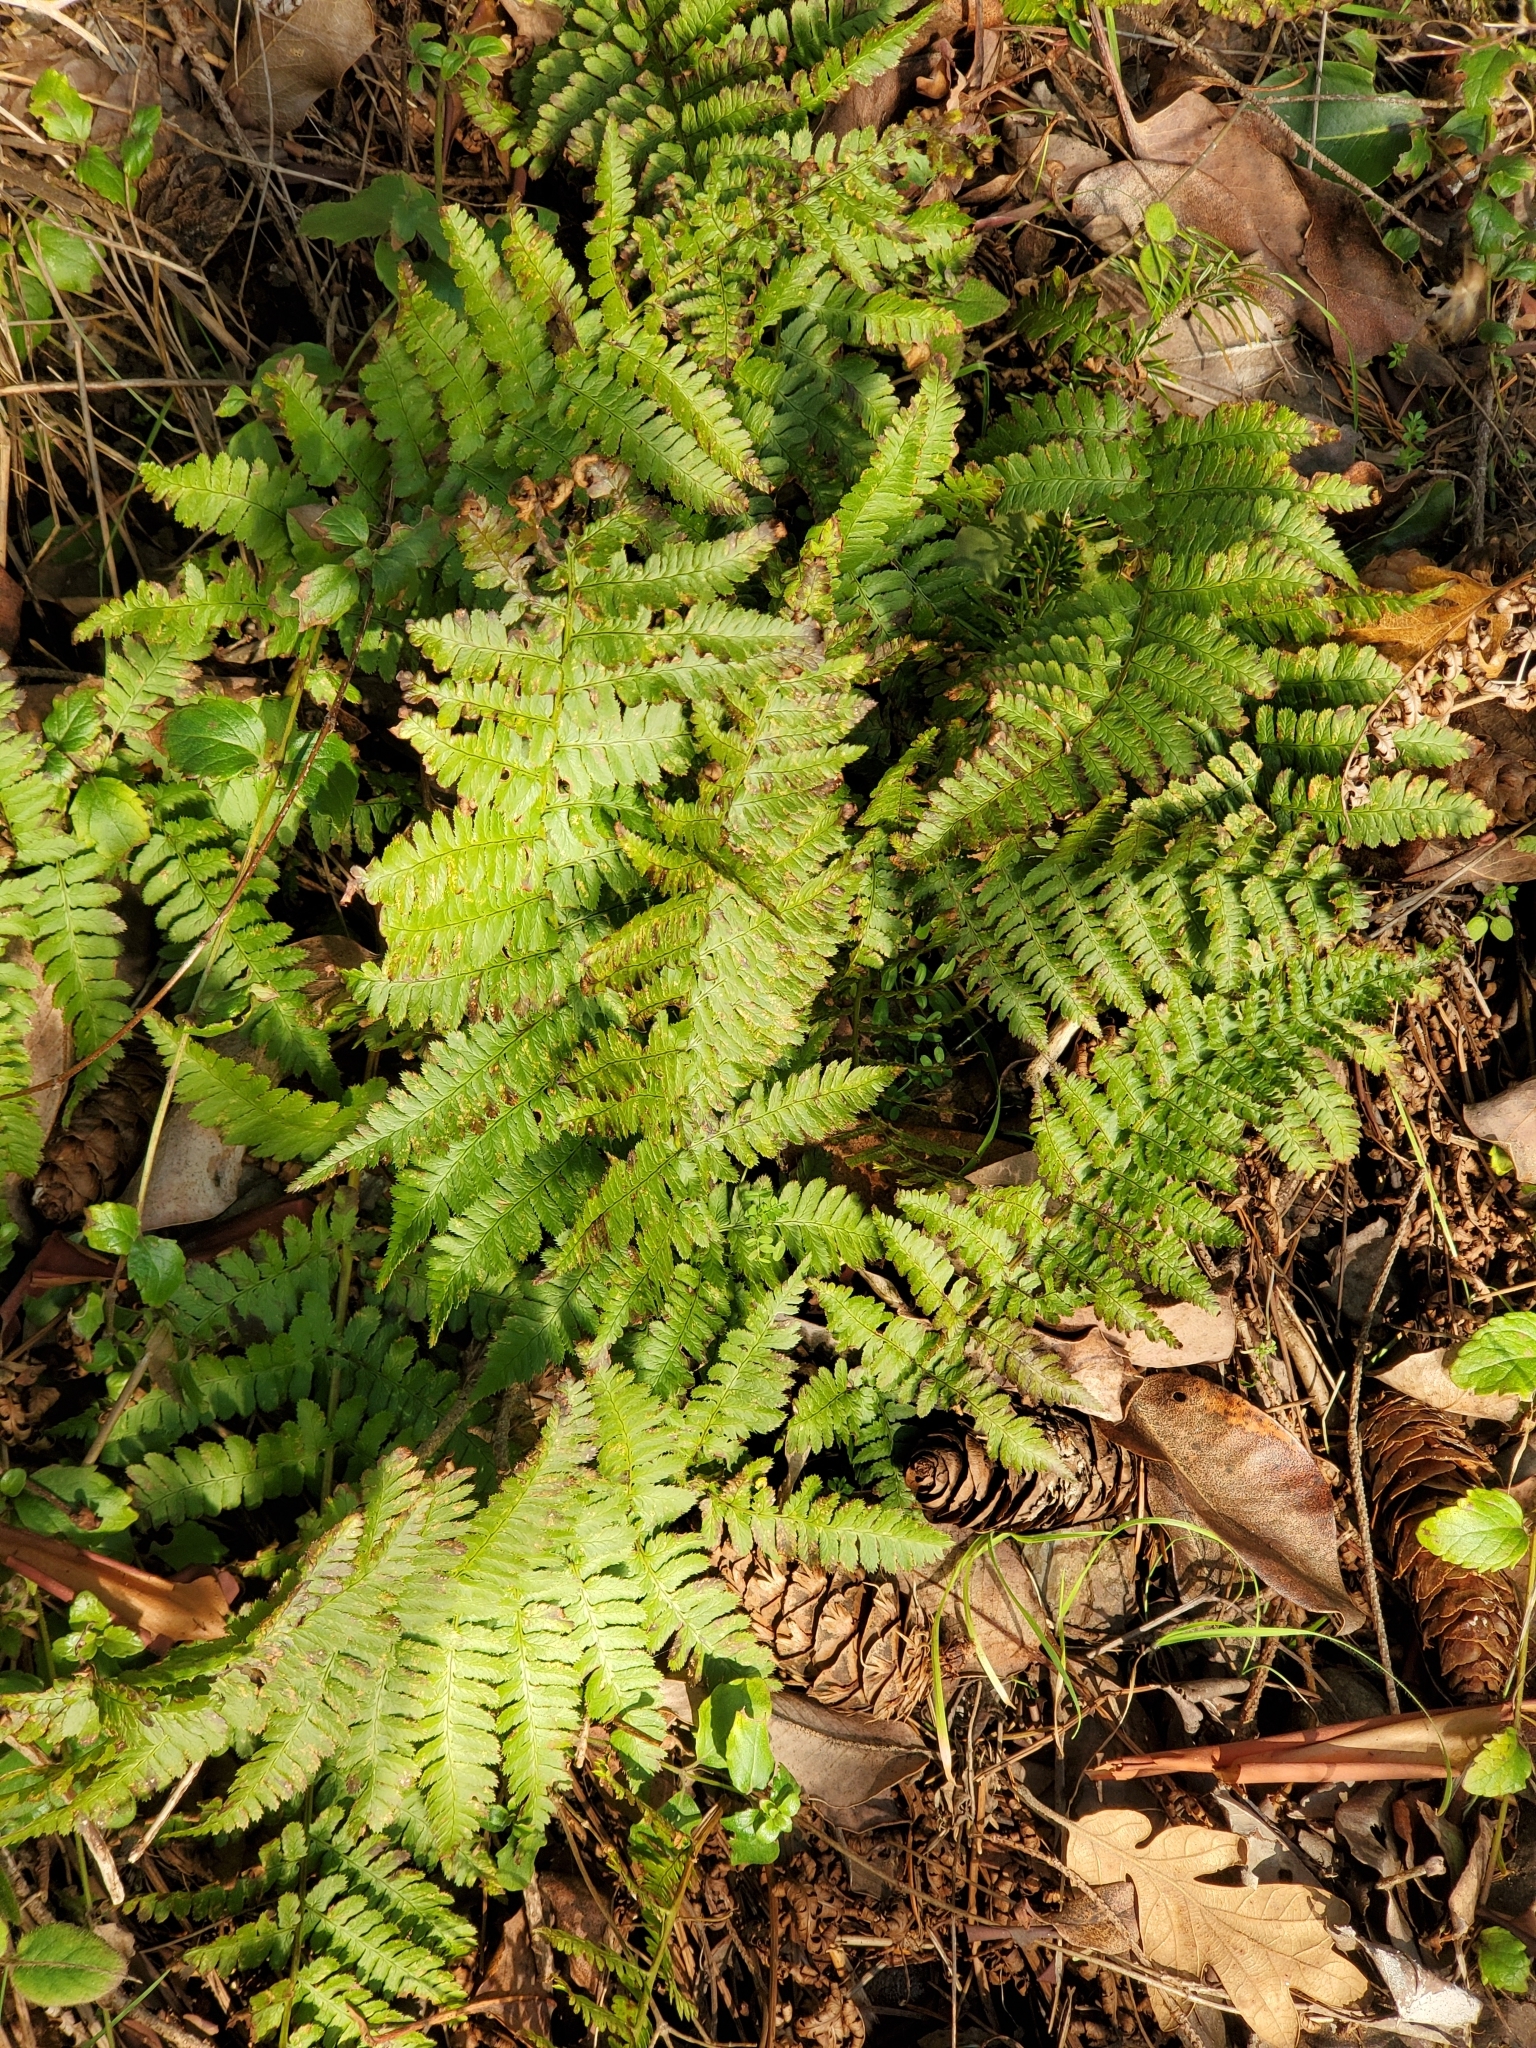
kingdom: Plantae
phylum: Tracheophyta
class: Polypodiopsida
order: Polypodiales
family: Dryopteridaceae
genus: Dryopteris
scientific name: Dryopteris arguta
